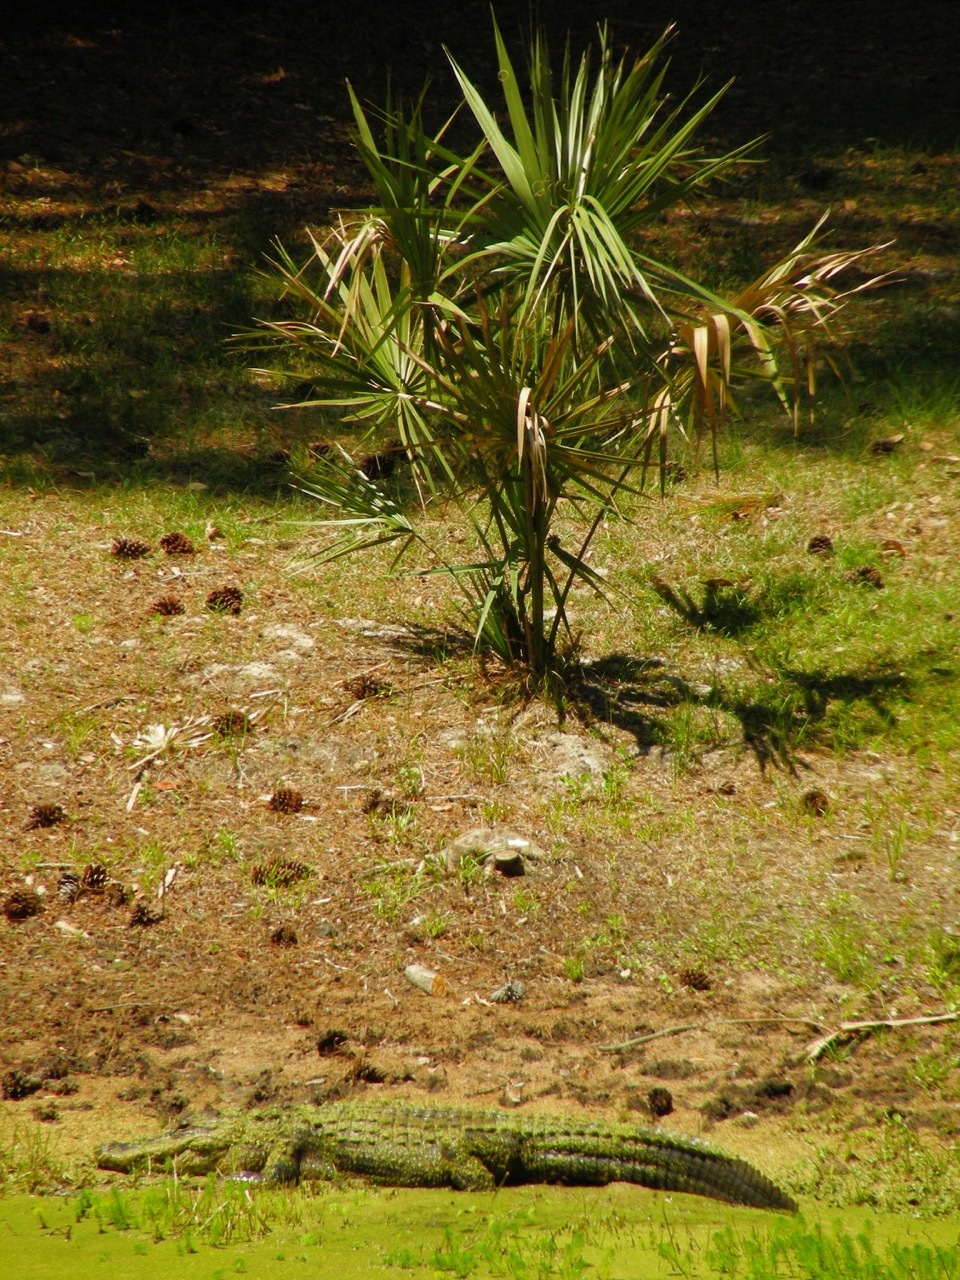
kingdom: Animalia
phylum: Chordata
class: Crocodylia
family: Alligatoridae
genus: Alligator
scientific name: Alligator mississippiensis
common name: American alligator
